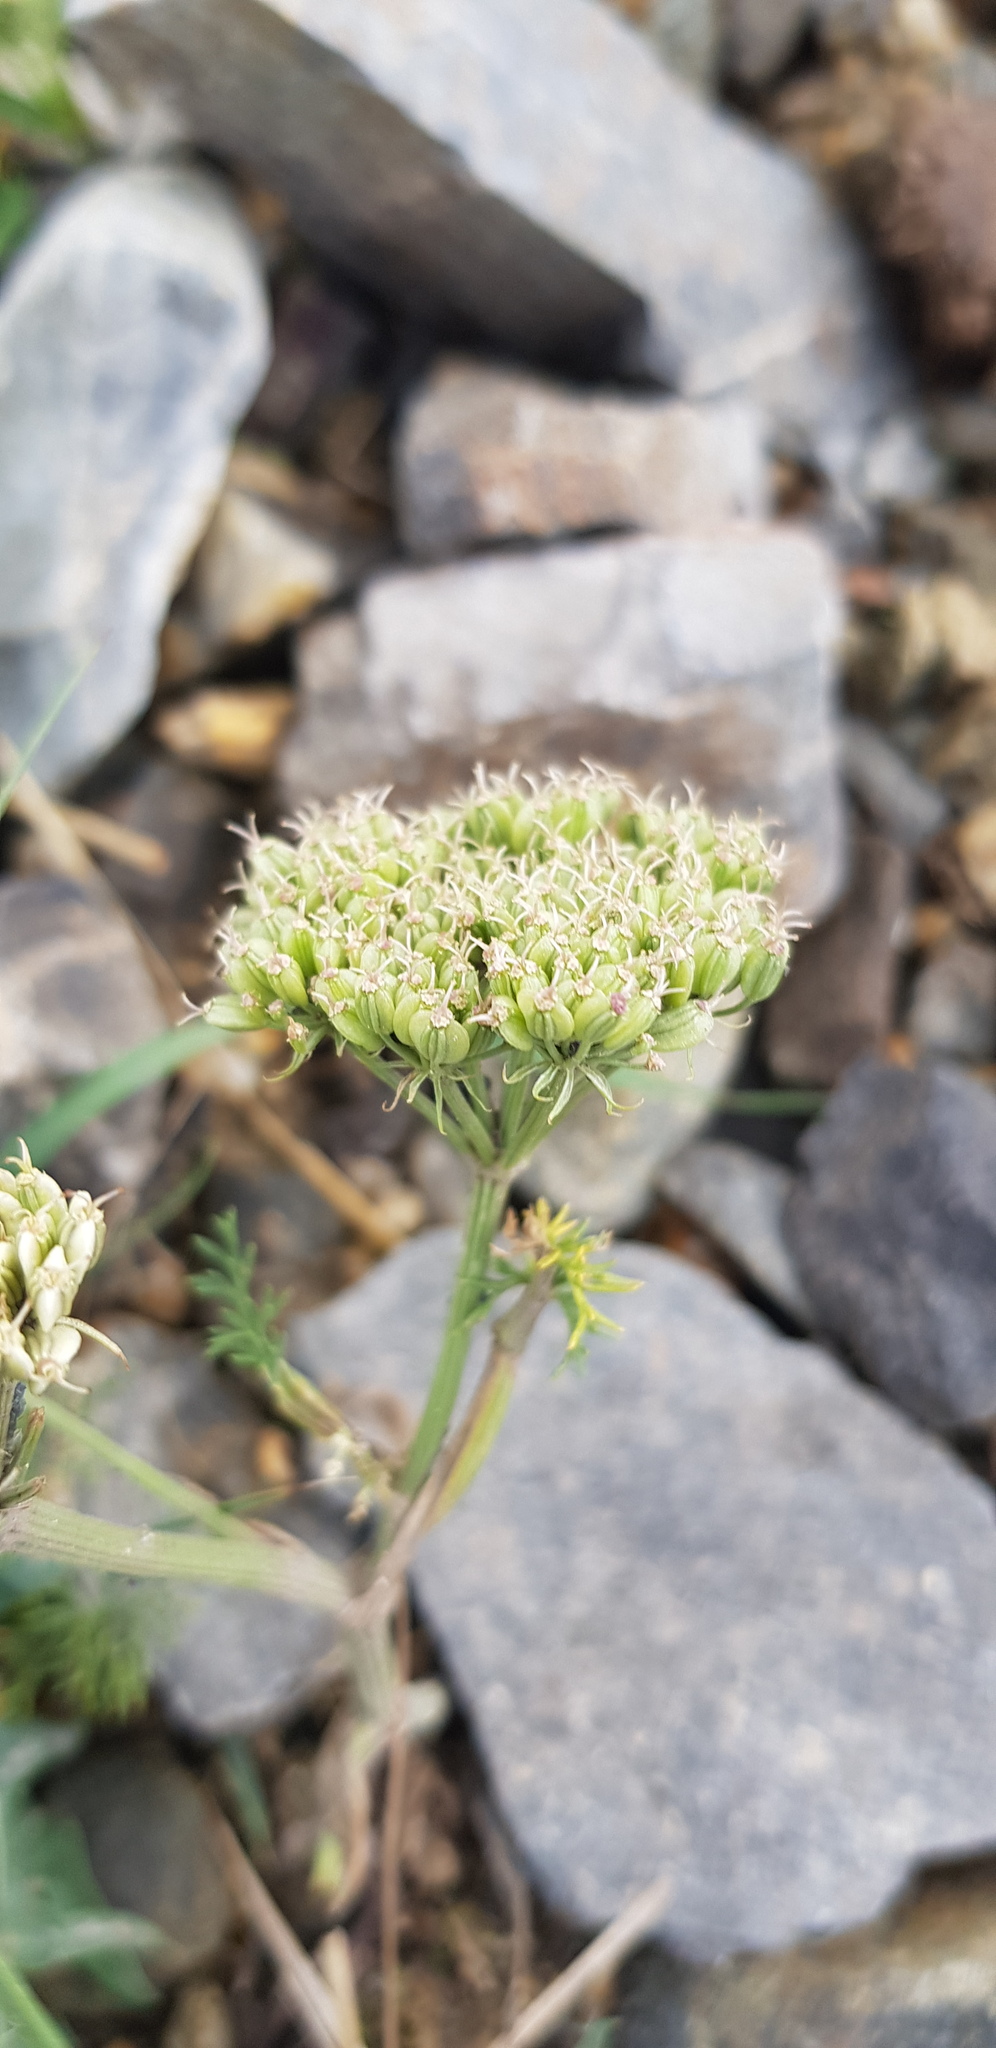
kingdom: Plantae
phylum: Tracheophyta
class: Magnoliopsida
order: Apiales
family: Apiaceae
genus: Kitagawia
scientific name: Kitagawia baicalensis
